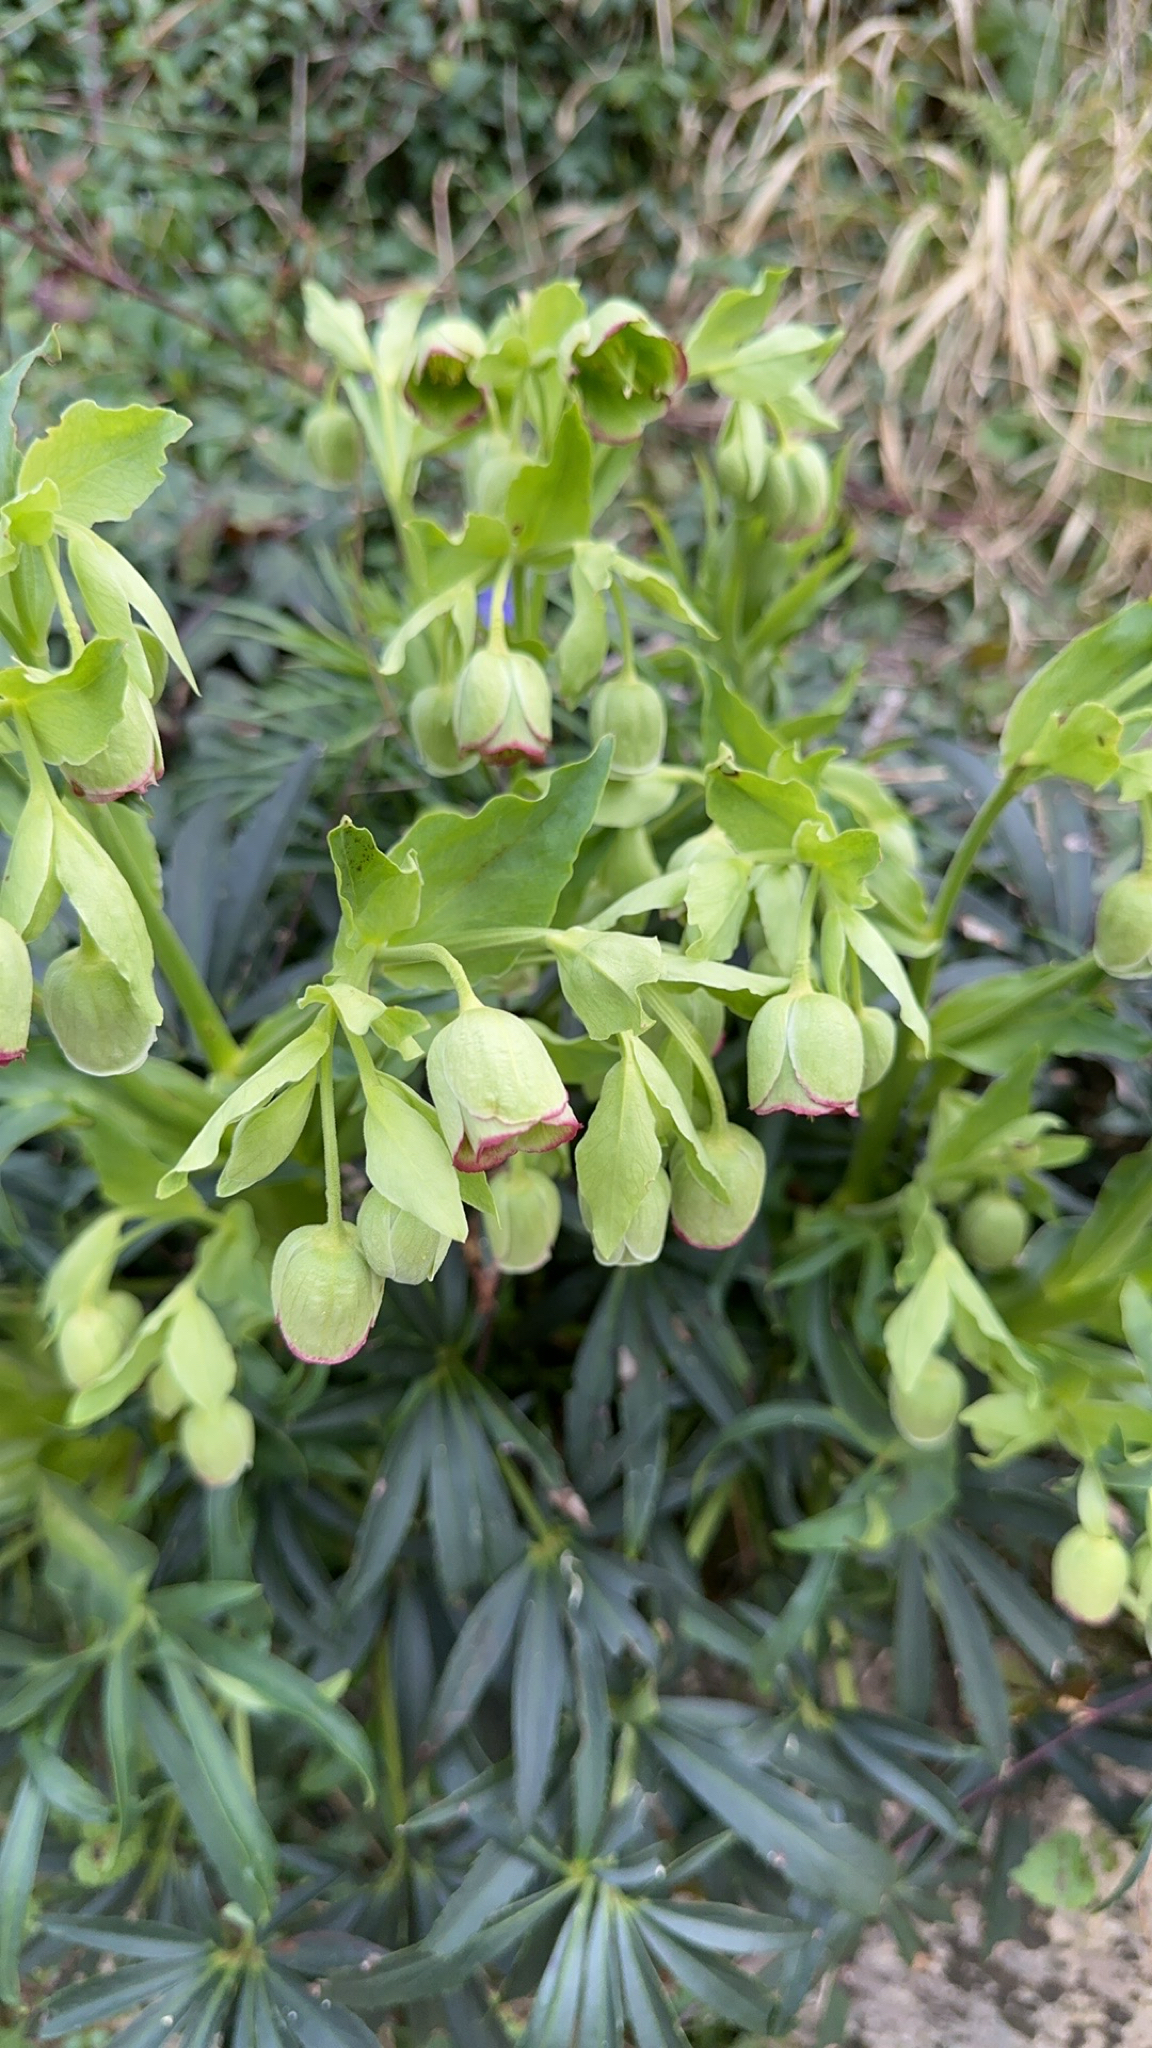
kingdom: Plantae
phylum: Tracheophyta
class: Magnoliopsida
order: Ranunculales
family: Ranunculaceae
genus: Helleborus
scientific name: Helleborus foetidus
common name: Stinking hellebore
